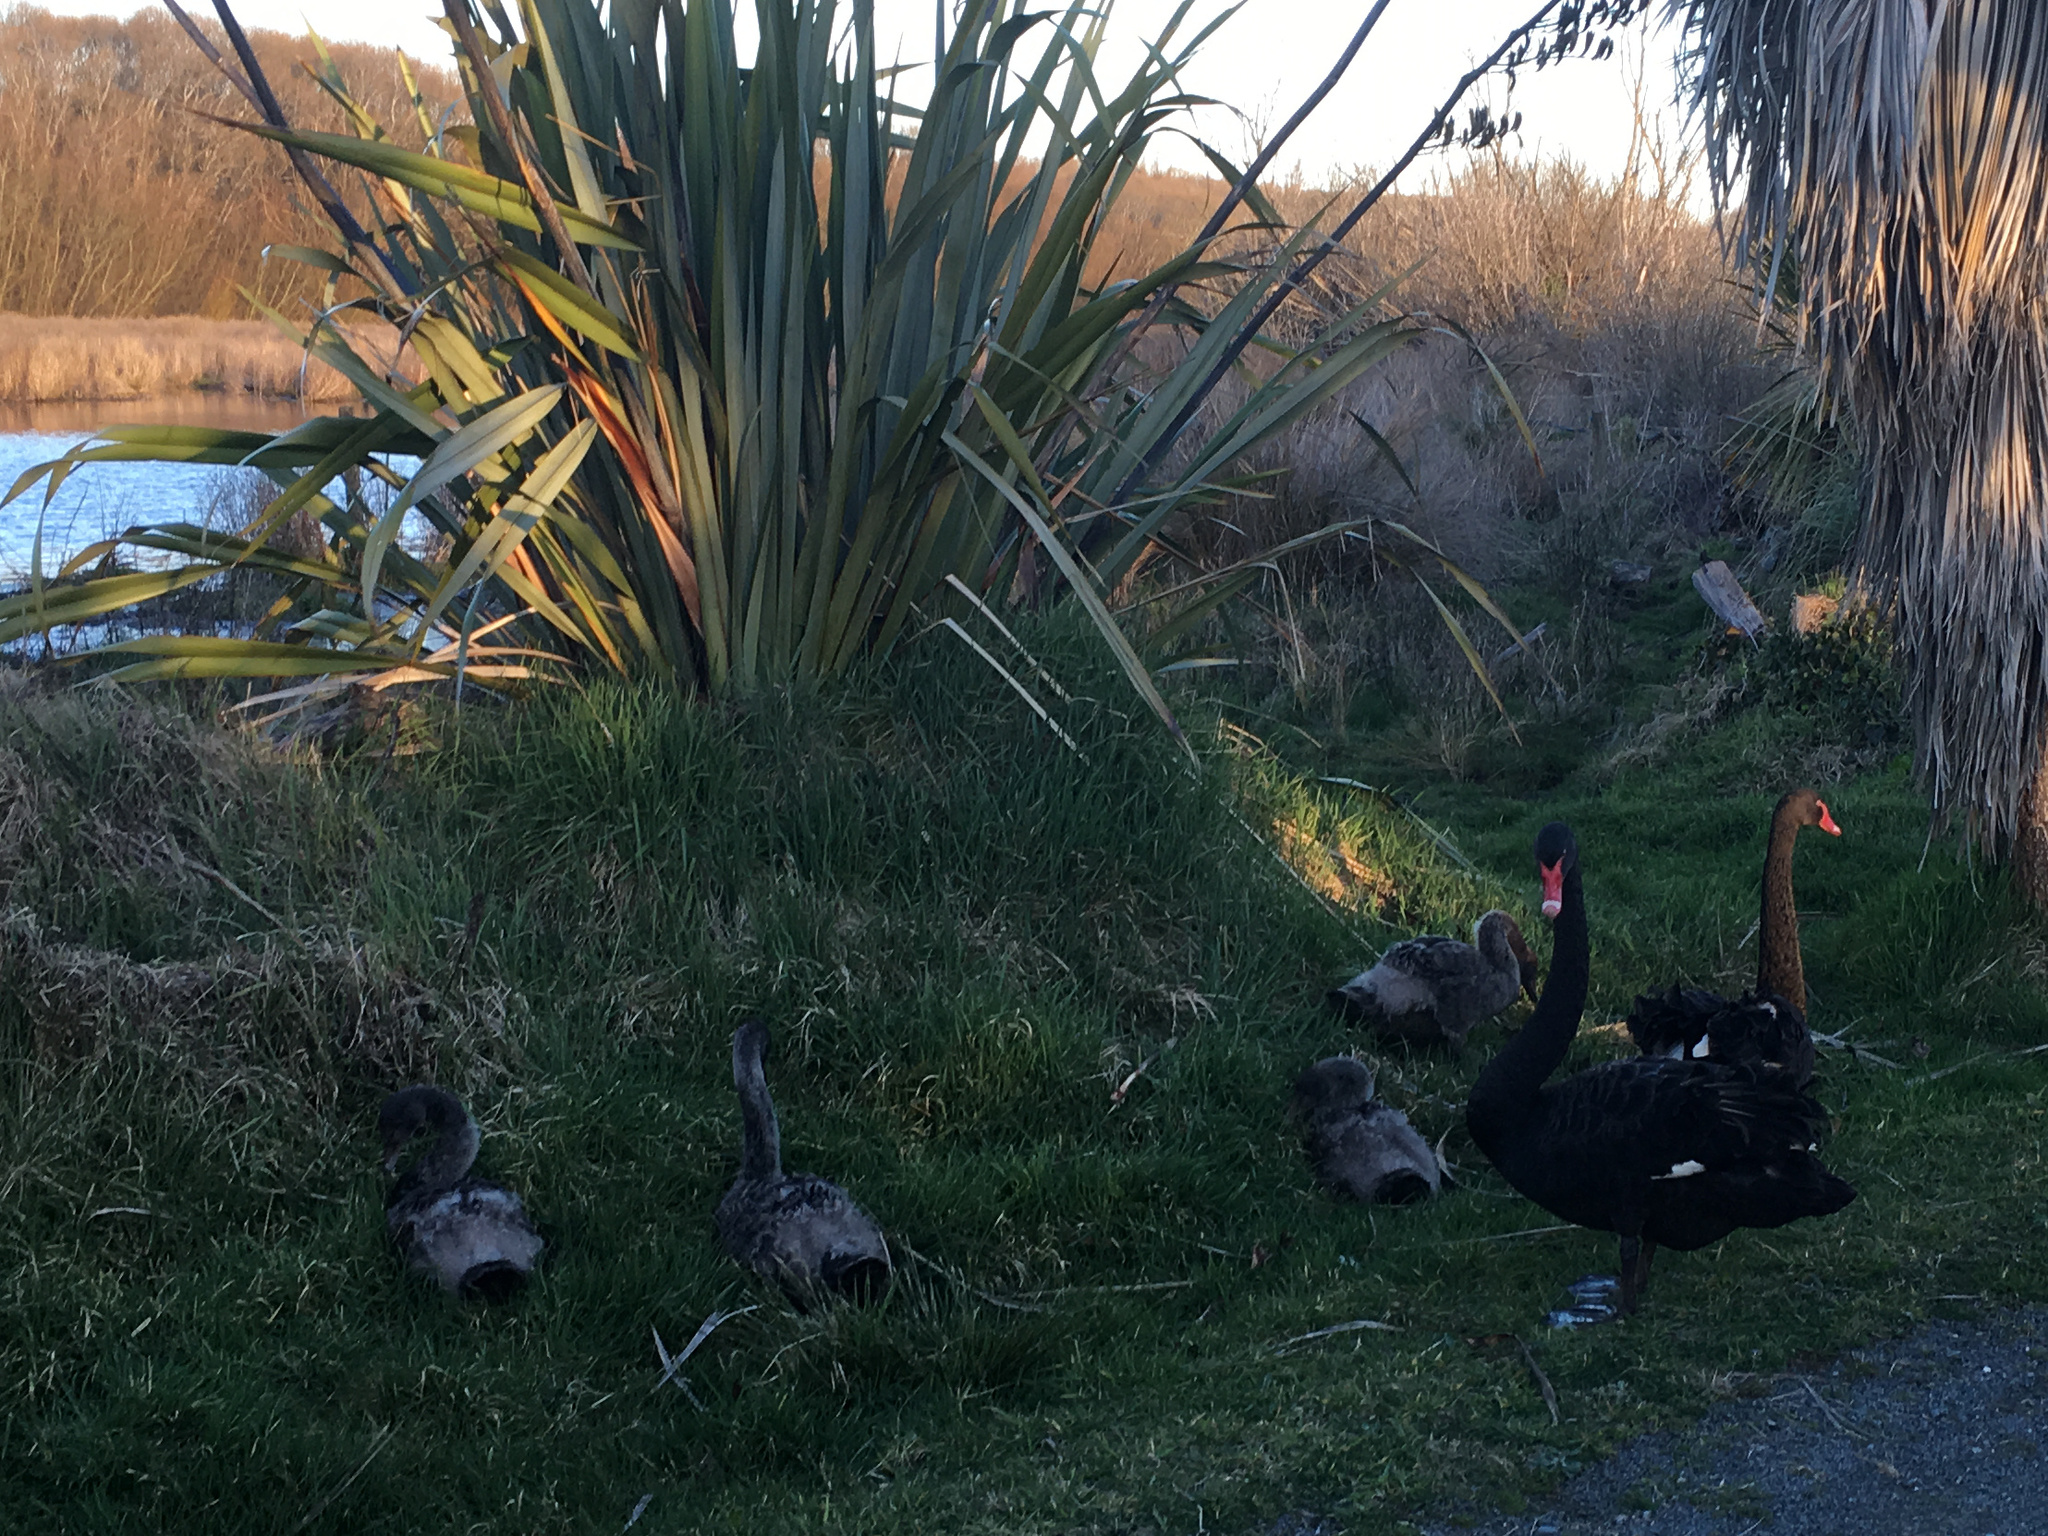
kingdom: Animalia
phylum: Chordata
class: Aves
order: Anseriformes
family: Anatidae
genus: Cygnus
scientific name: Cygnus atratus
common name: Black swan
